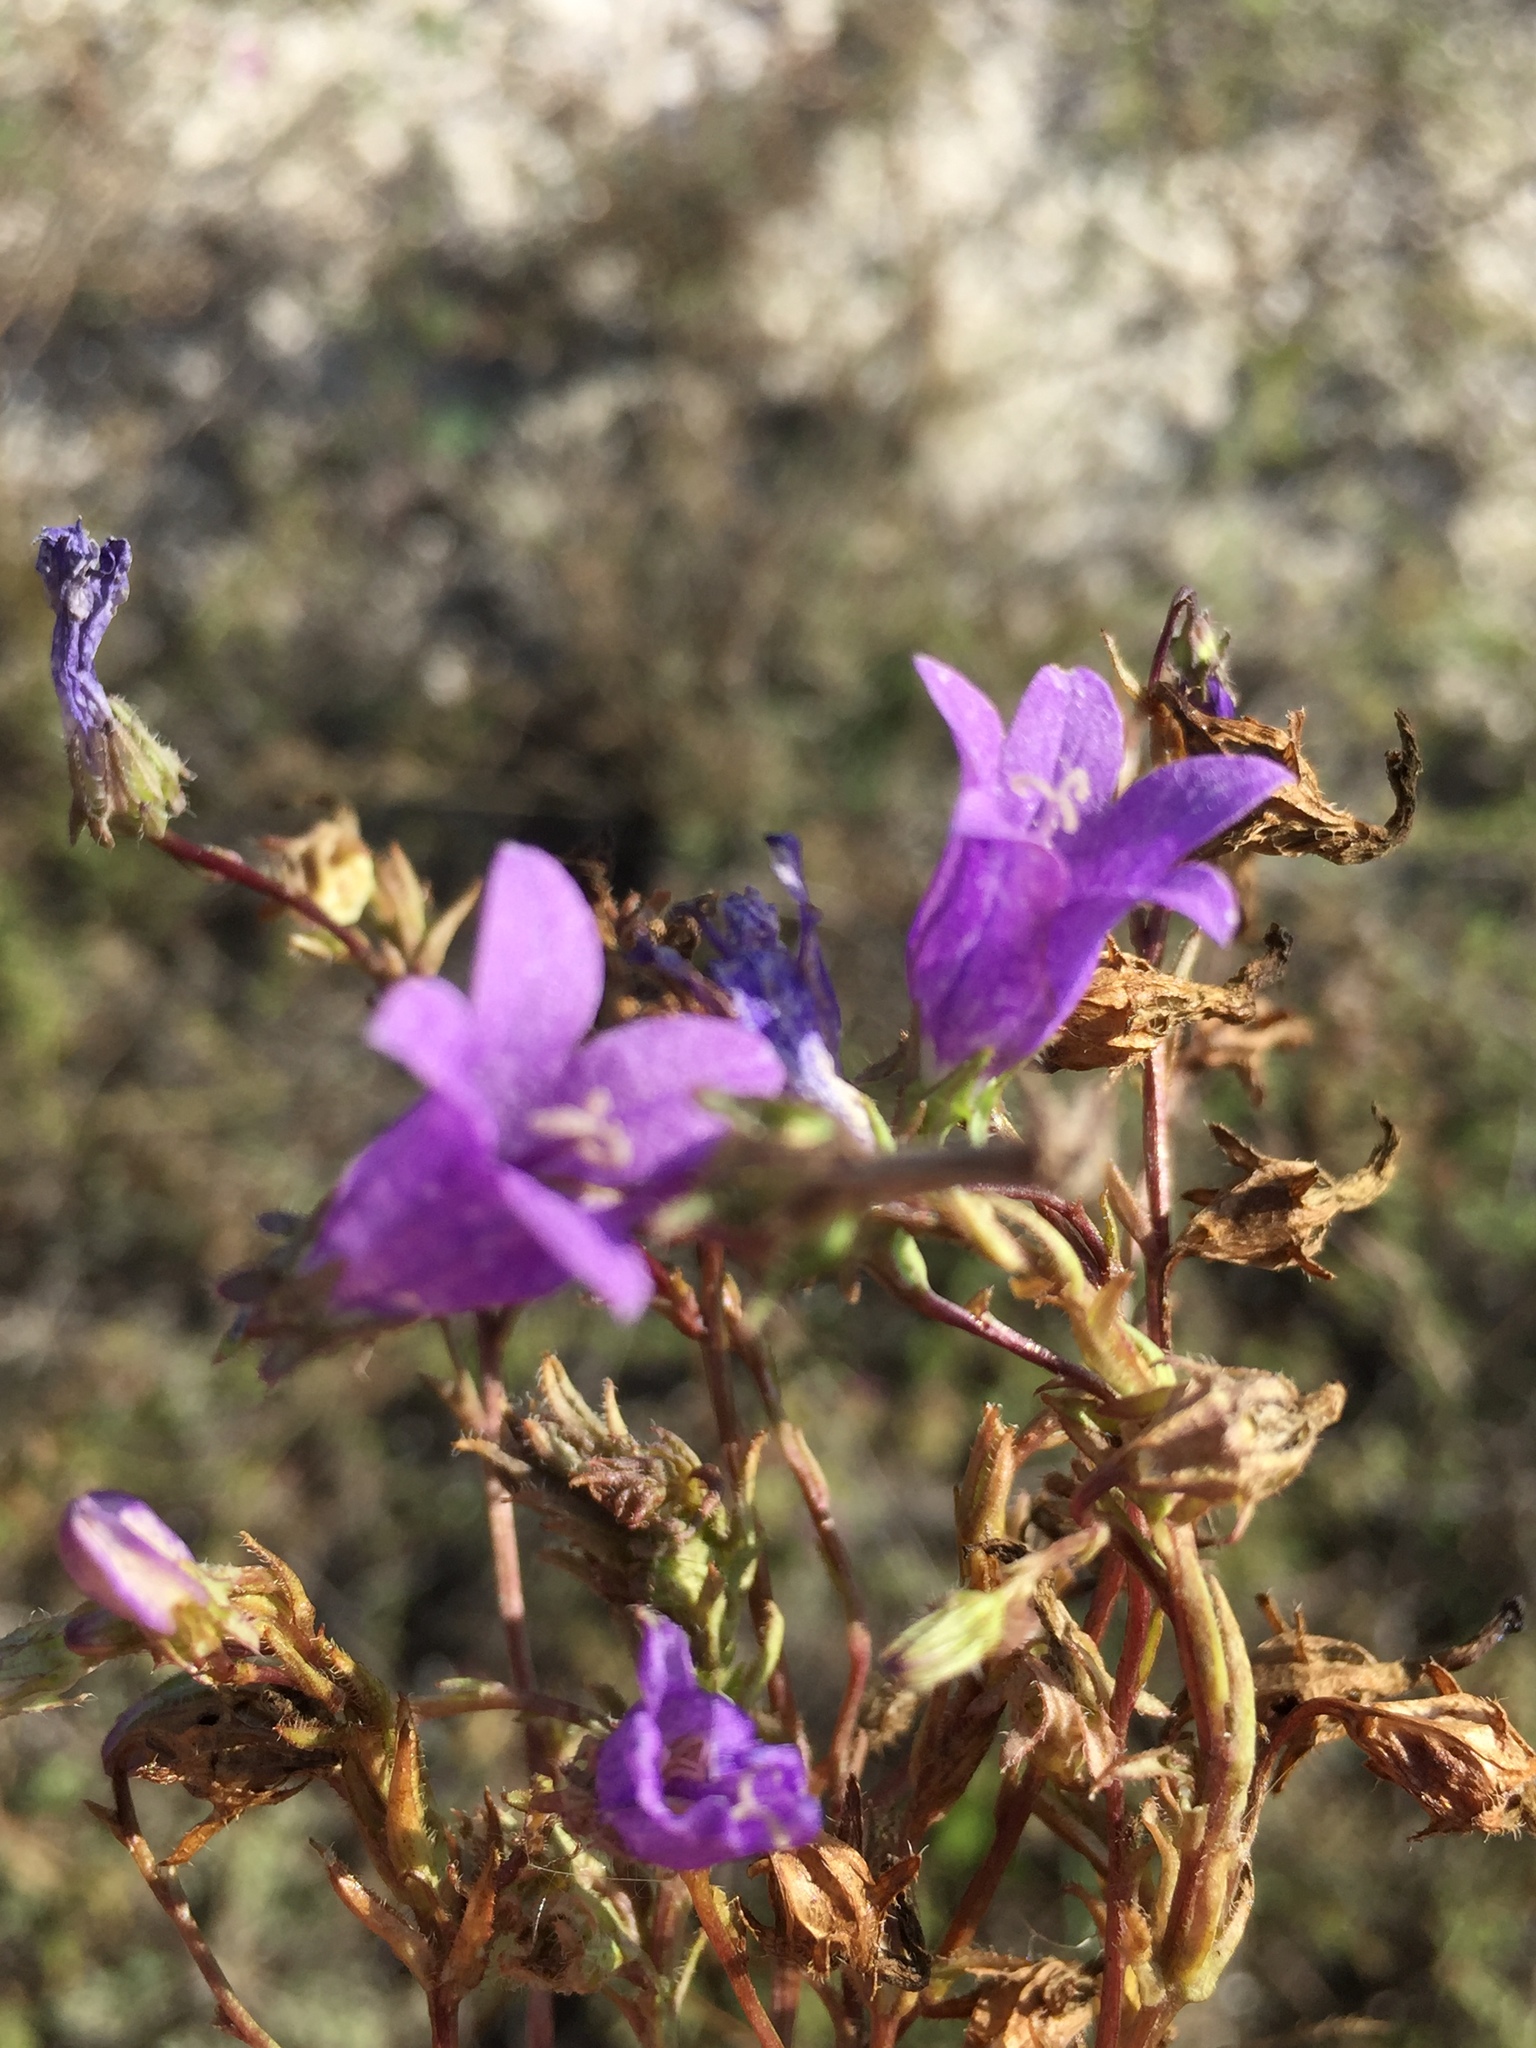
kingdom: Plantae
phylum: Tracheophyta
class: Magnoliopsida
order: Asterales
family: Campanulaceae
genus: Campanula
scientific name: Campanula sibirica
